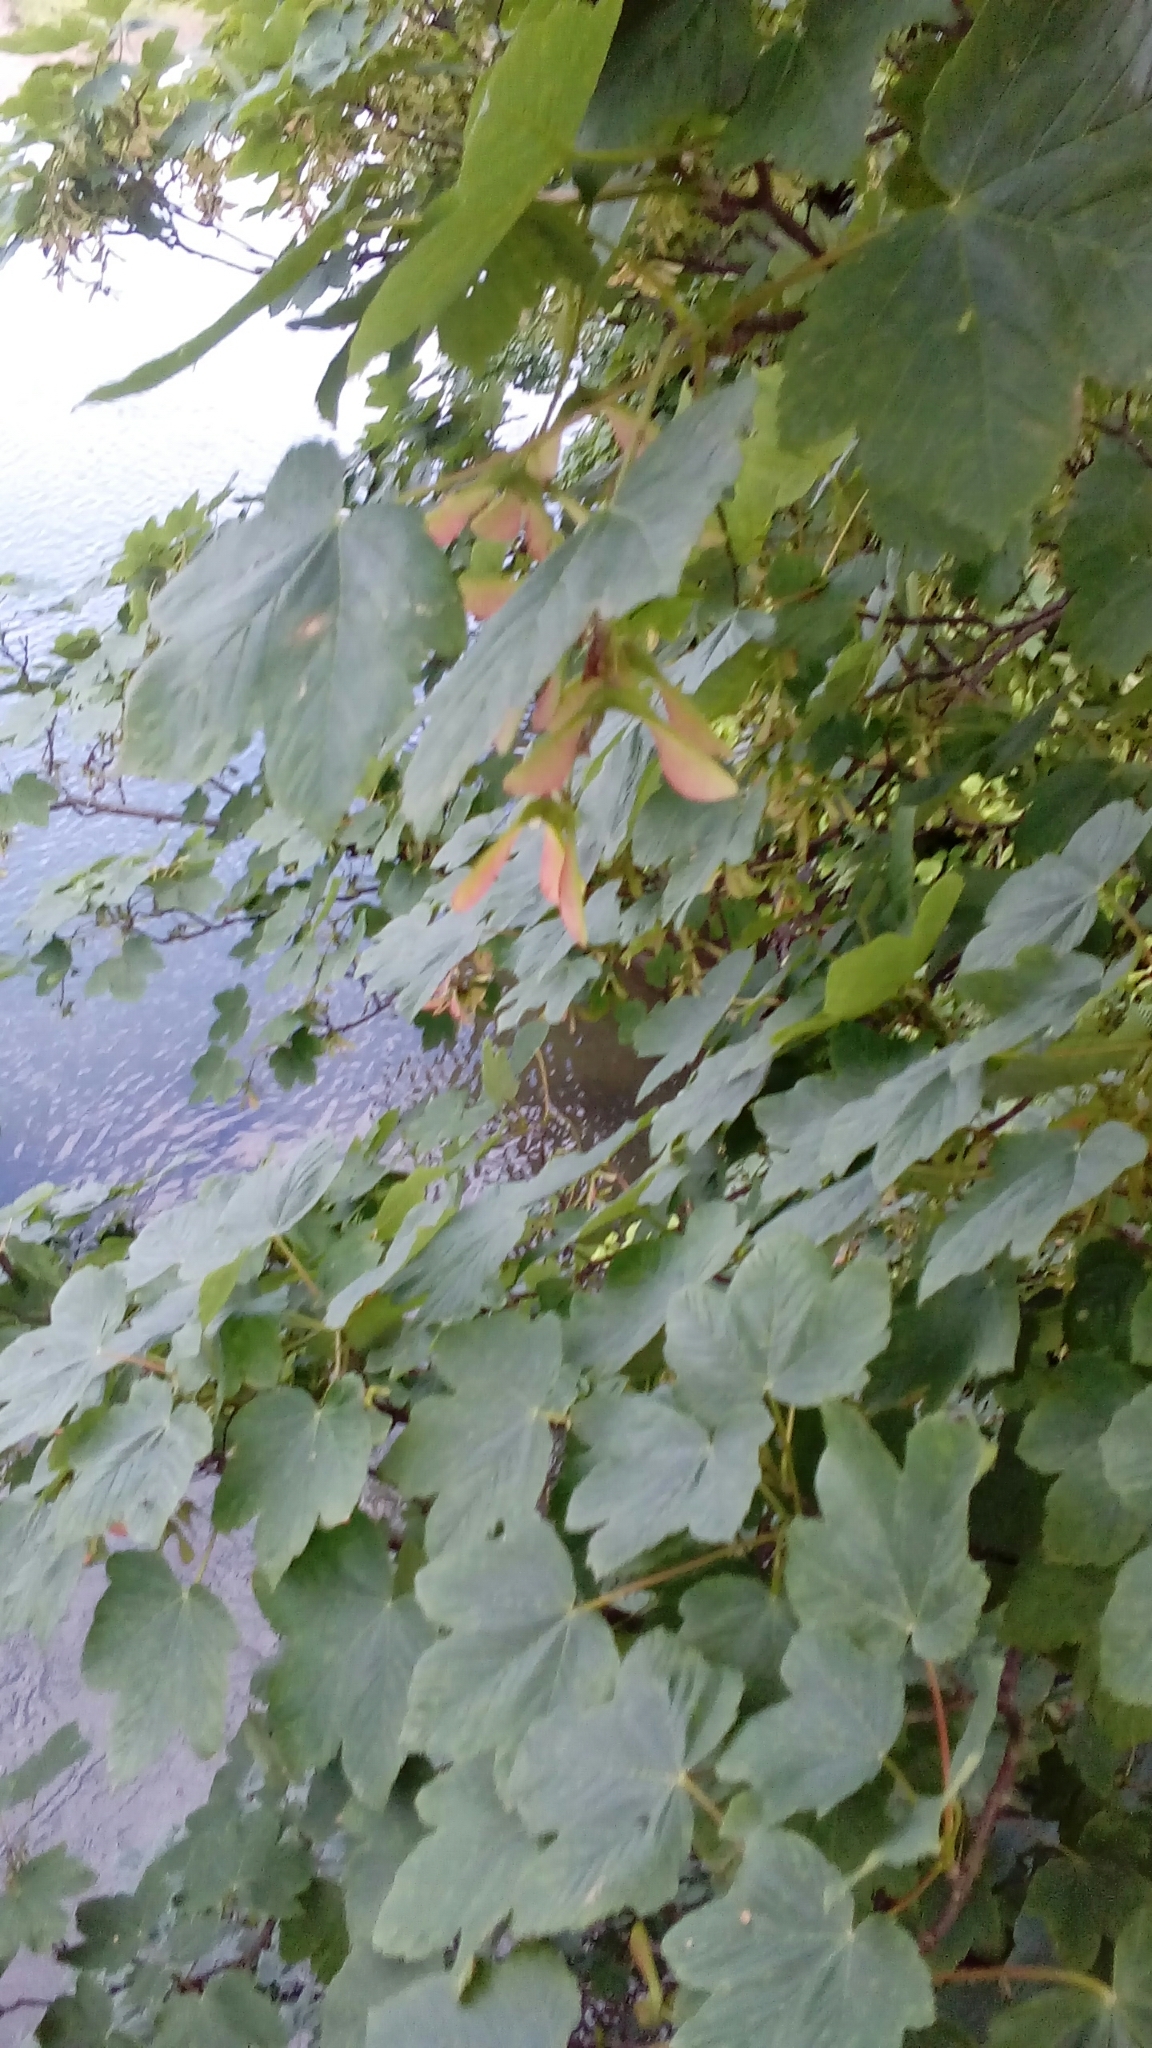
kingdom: Plantae
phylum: Tracheophyta
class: Magnoliopsida
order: Sapindales
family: Sapindaceae
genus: Acer
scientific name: Acer pseudoplatanus
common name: Sycamore
